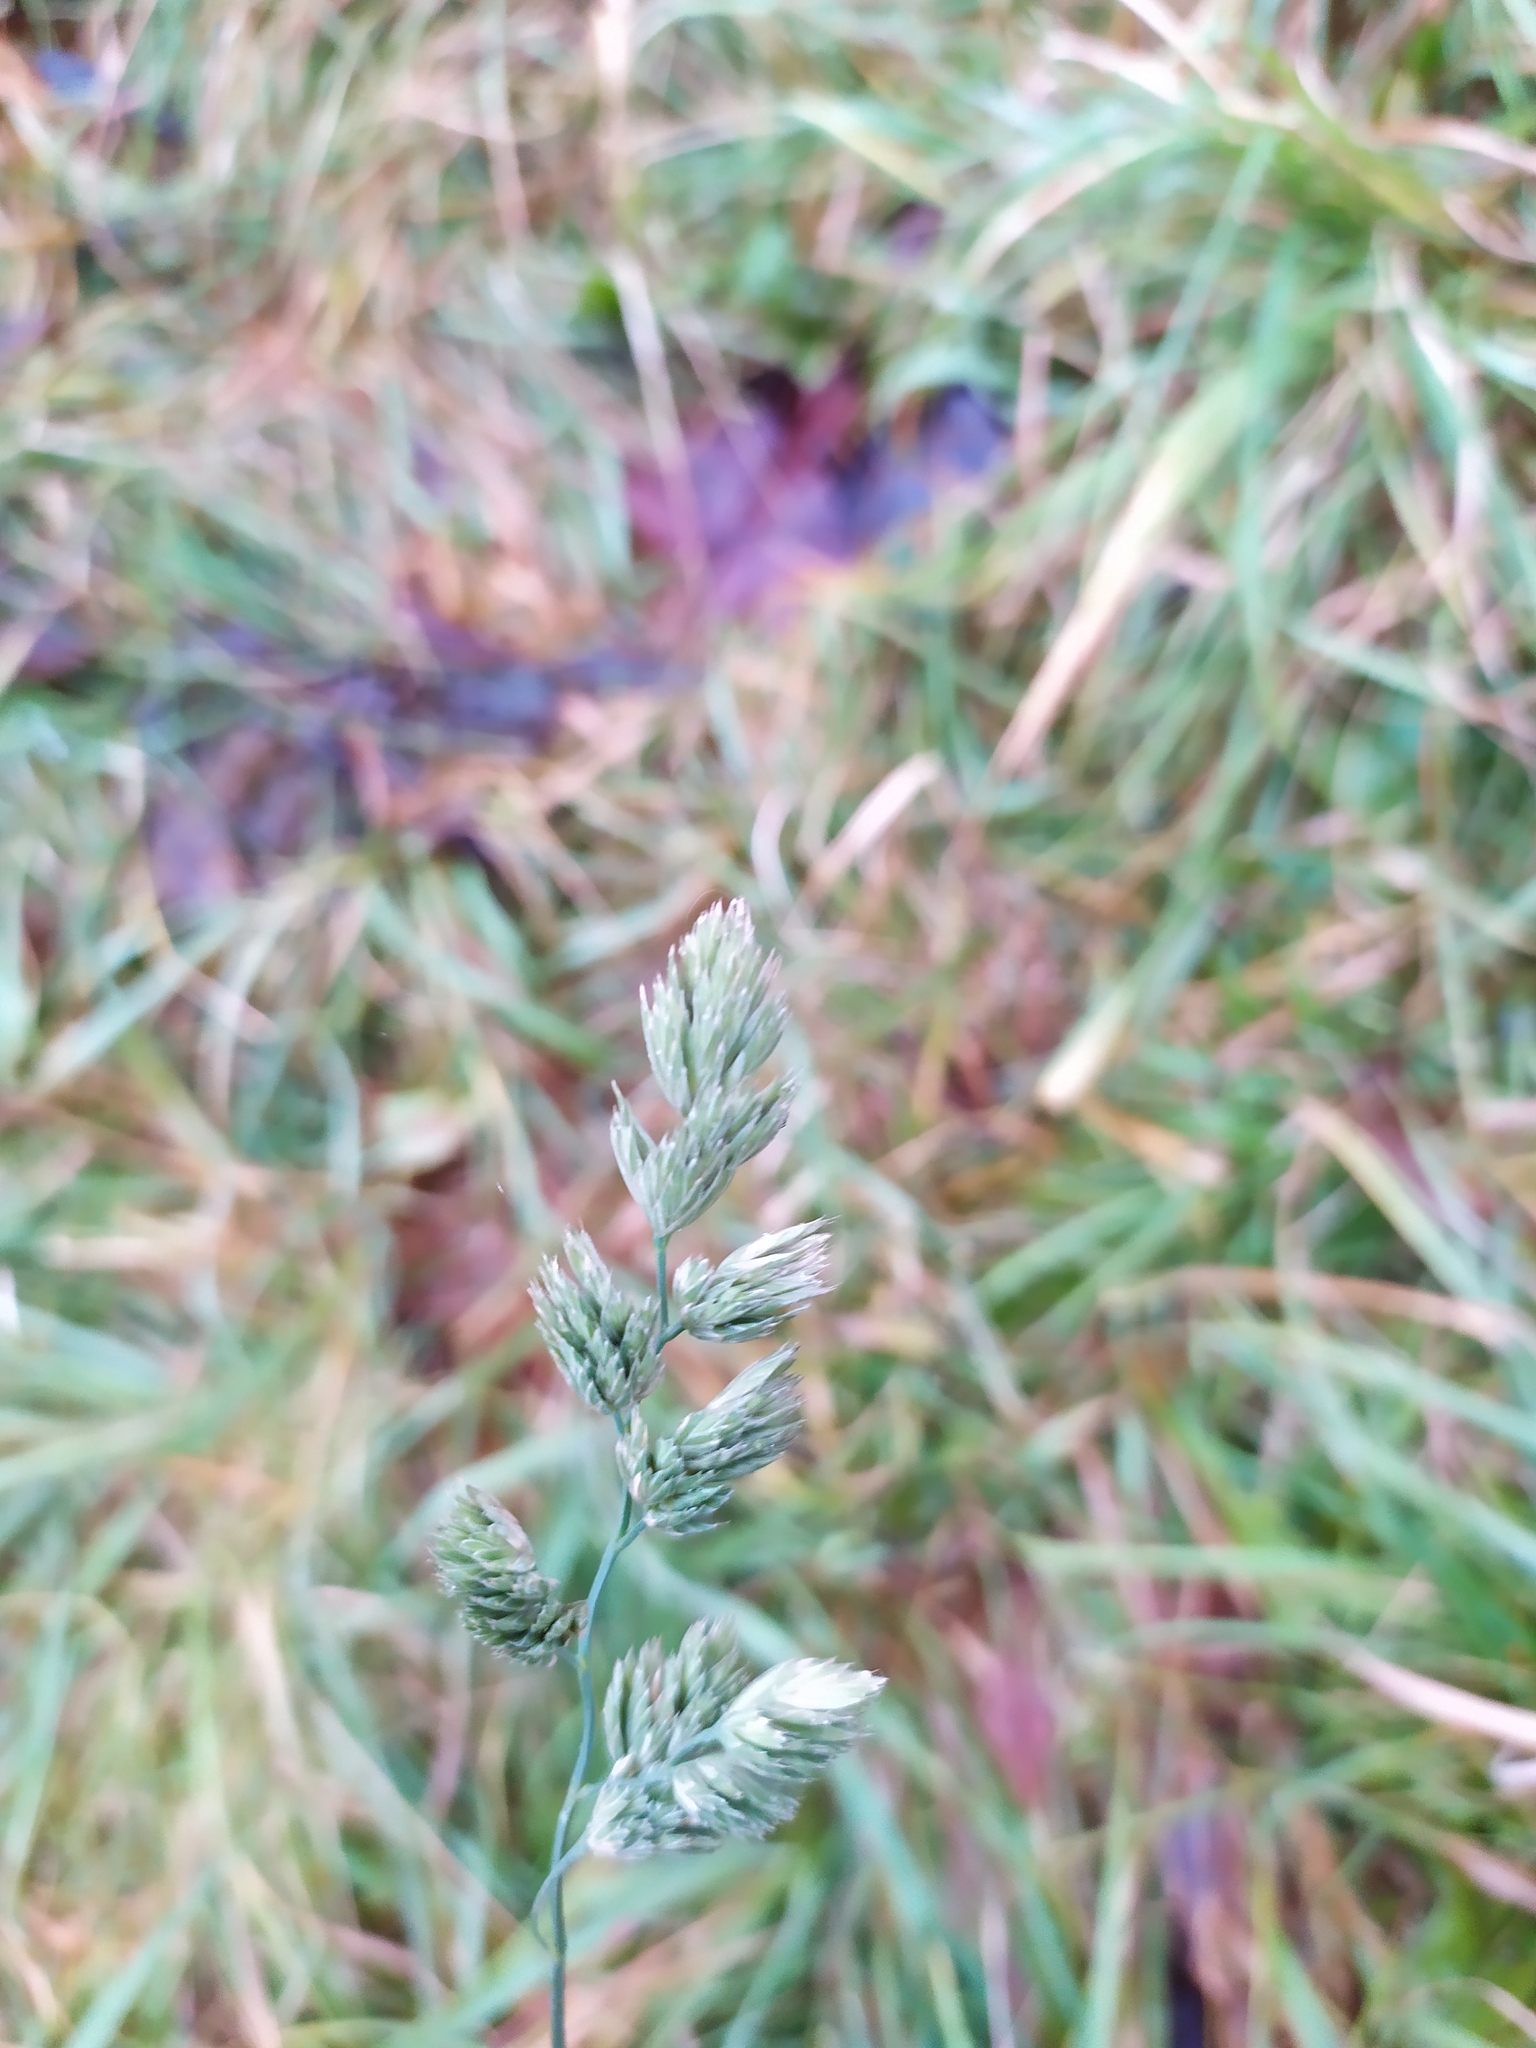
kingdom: Plantae
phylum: Tracheophyta
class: Liliopsida
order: Poales
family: Poaceae
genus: Dactylis
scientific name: Dactylis glomerata
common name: Orchardgrass
